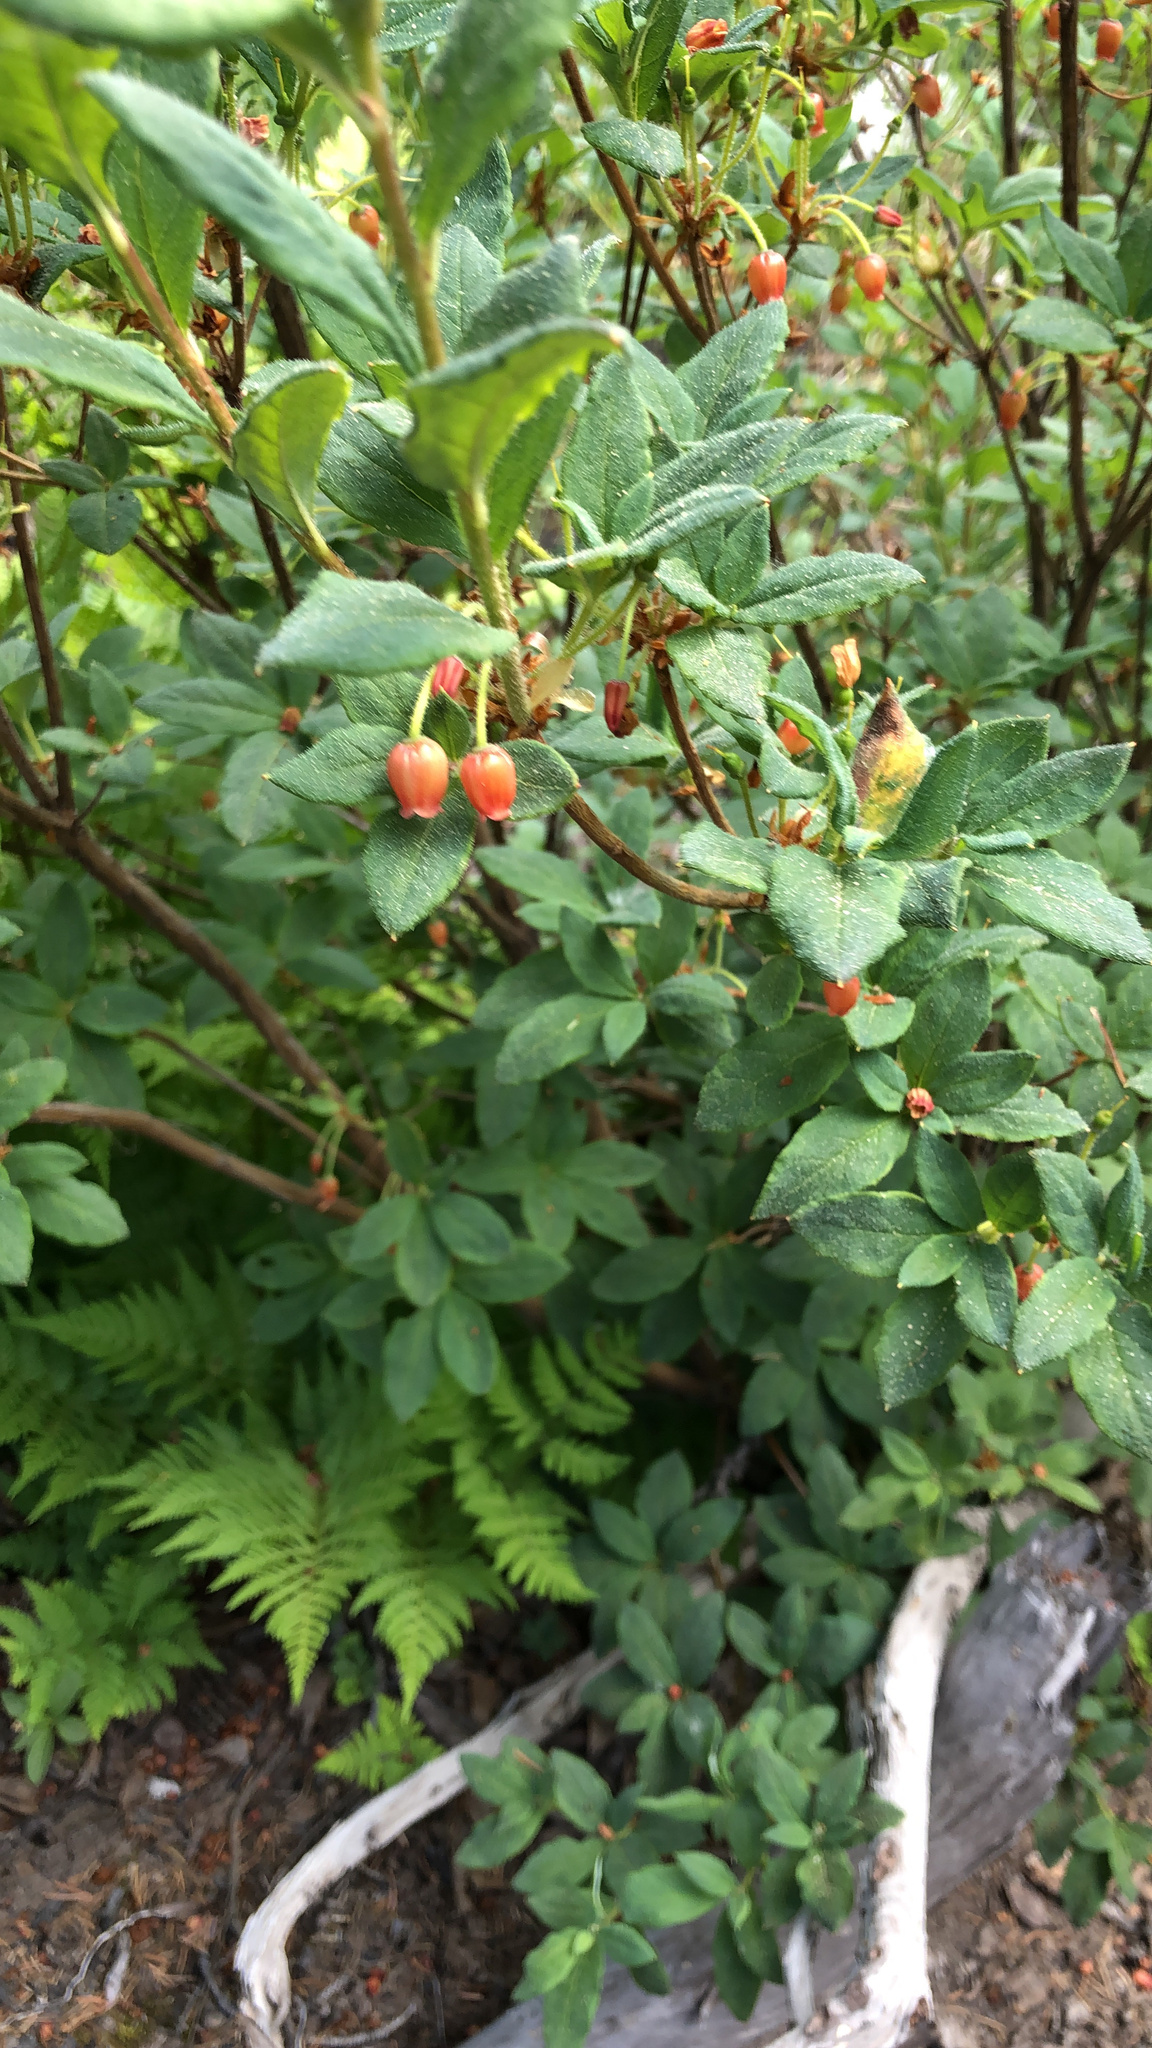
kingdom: Plantae
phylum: Tracheophyta
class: Magnoliopsida
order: Ericales
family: Ericaceae
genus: Rhododendron
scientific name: Rhododendron menziesii
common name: Pacific menziesia
